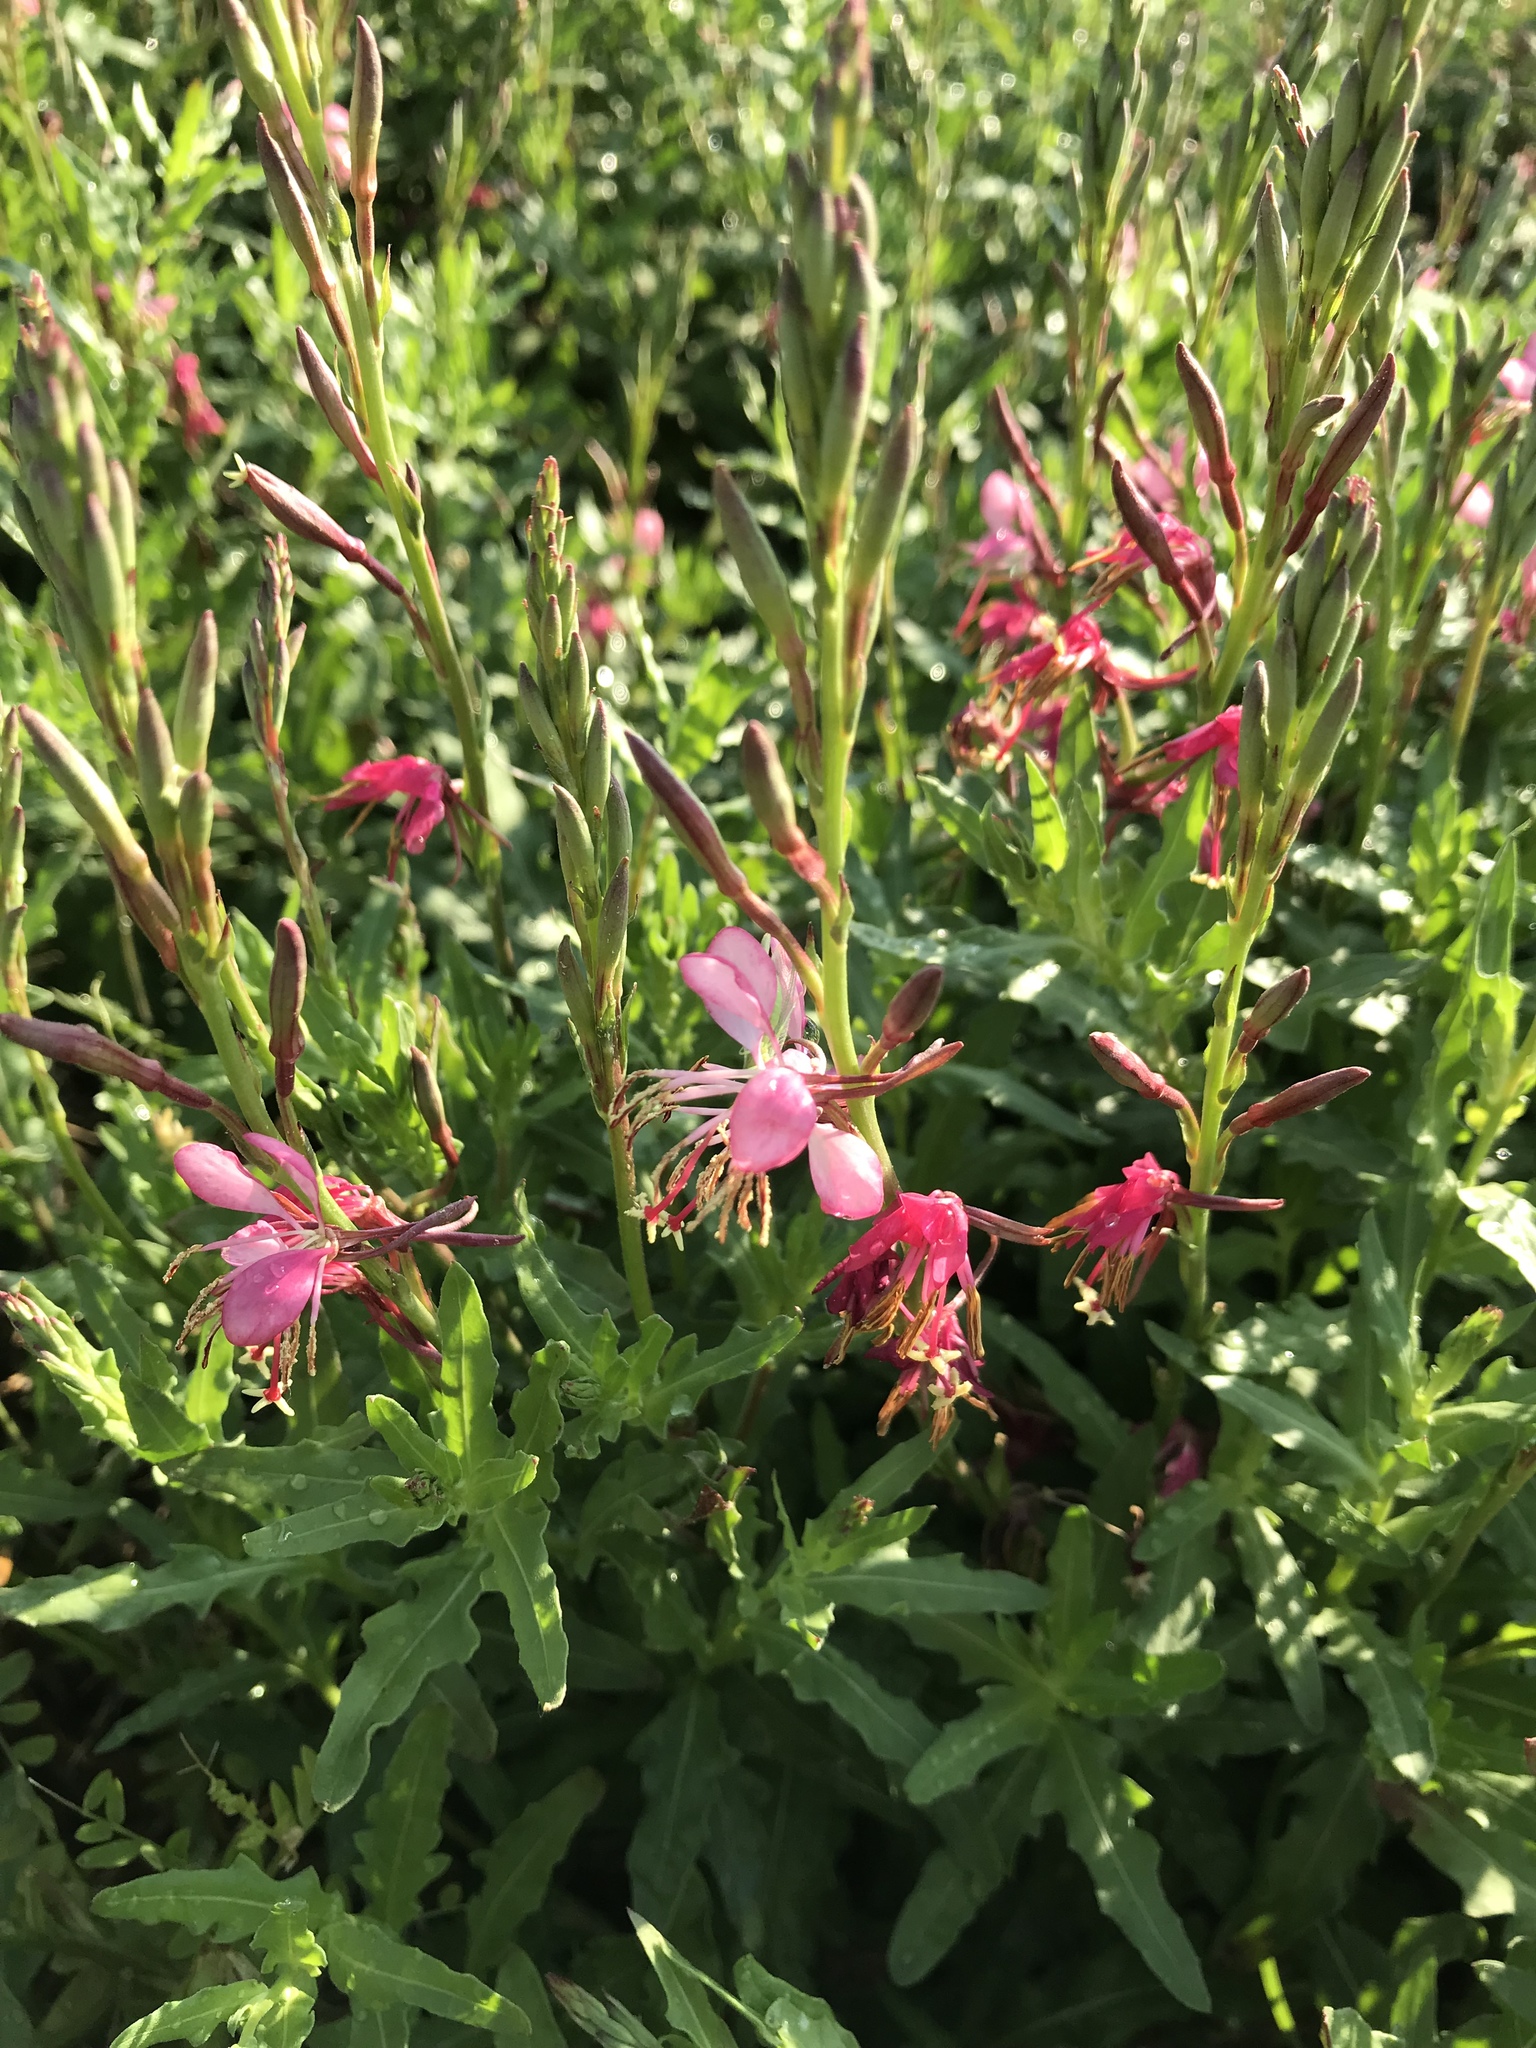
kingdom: Plantae
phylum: Tracheophyta
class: Magnoliopsida
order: Myrtales
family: Onagraceae
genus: Oenothera
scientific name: Oenothera suffrutescens
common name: Scarlet beeblossom
